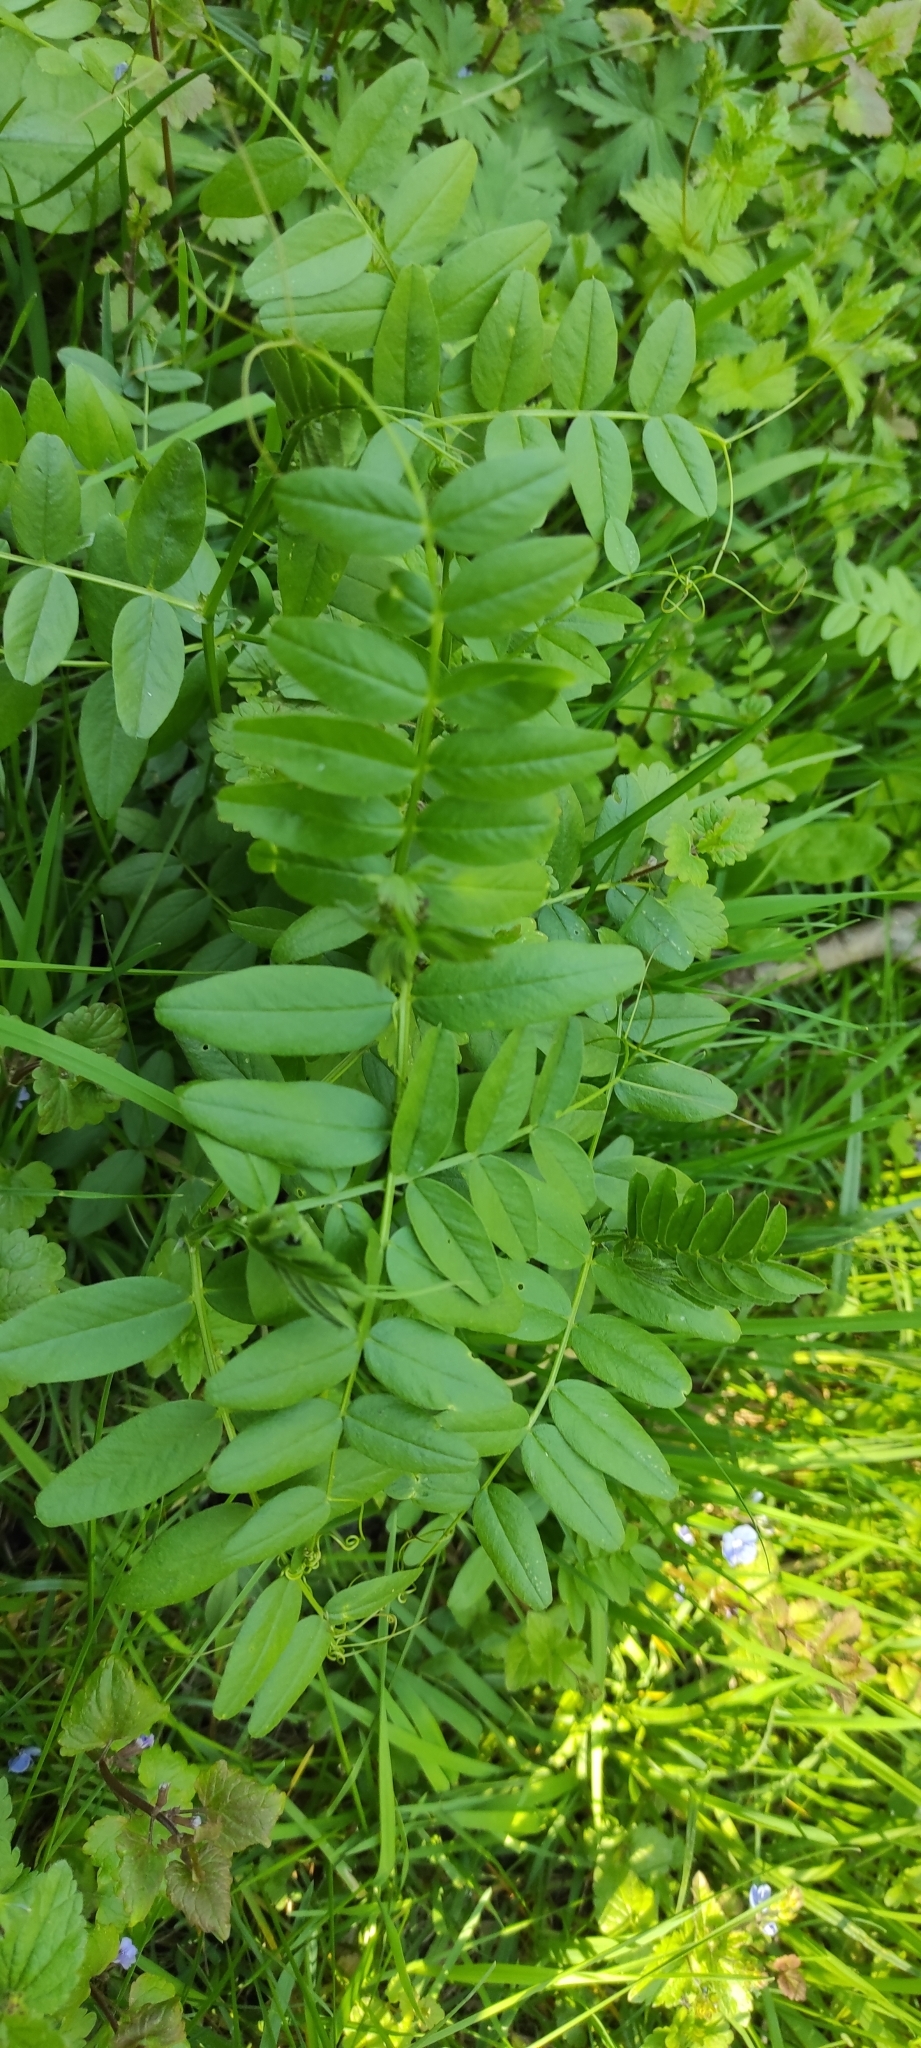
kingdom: Plantae
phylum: Tracheophyta
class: Magnoliopsida
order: Fabales
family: Fabaceae
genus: Vicia
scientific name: Vicia sepium
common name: Bush vetch
